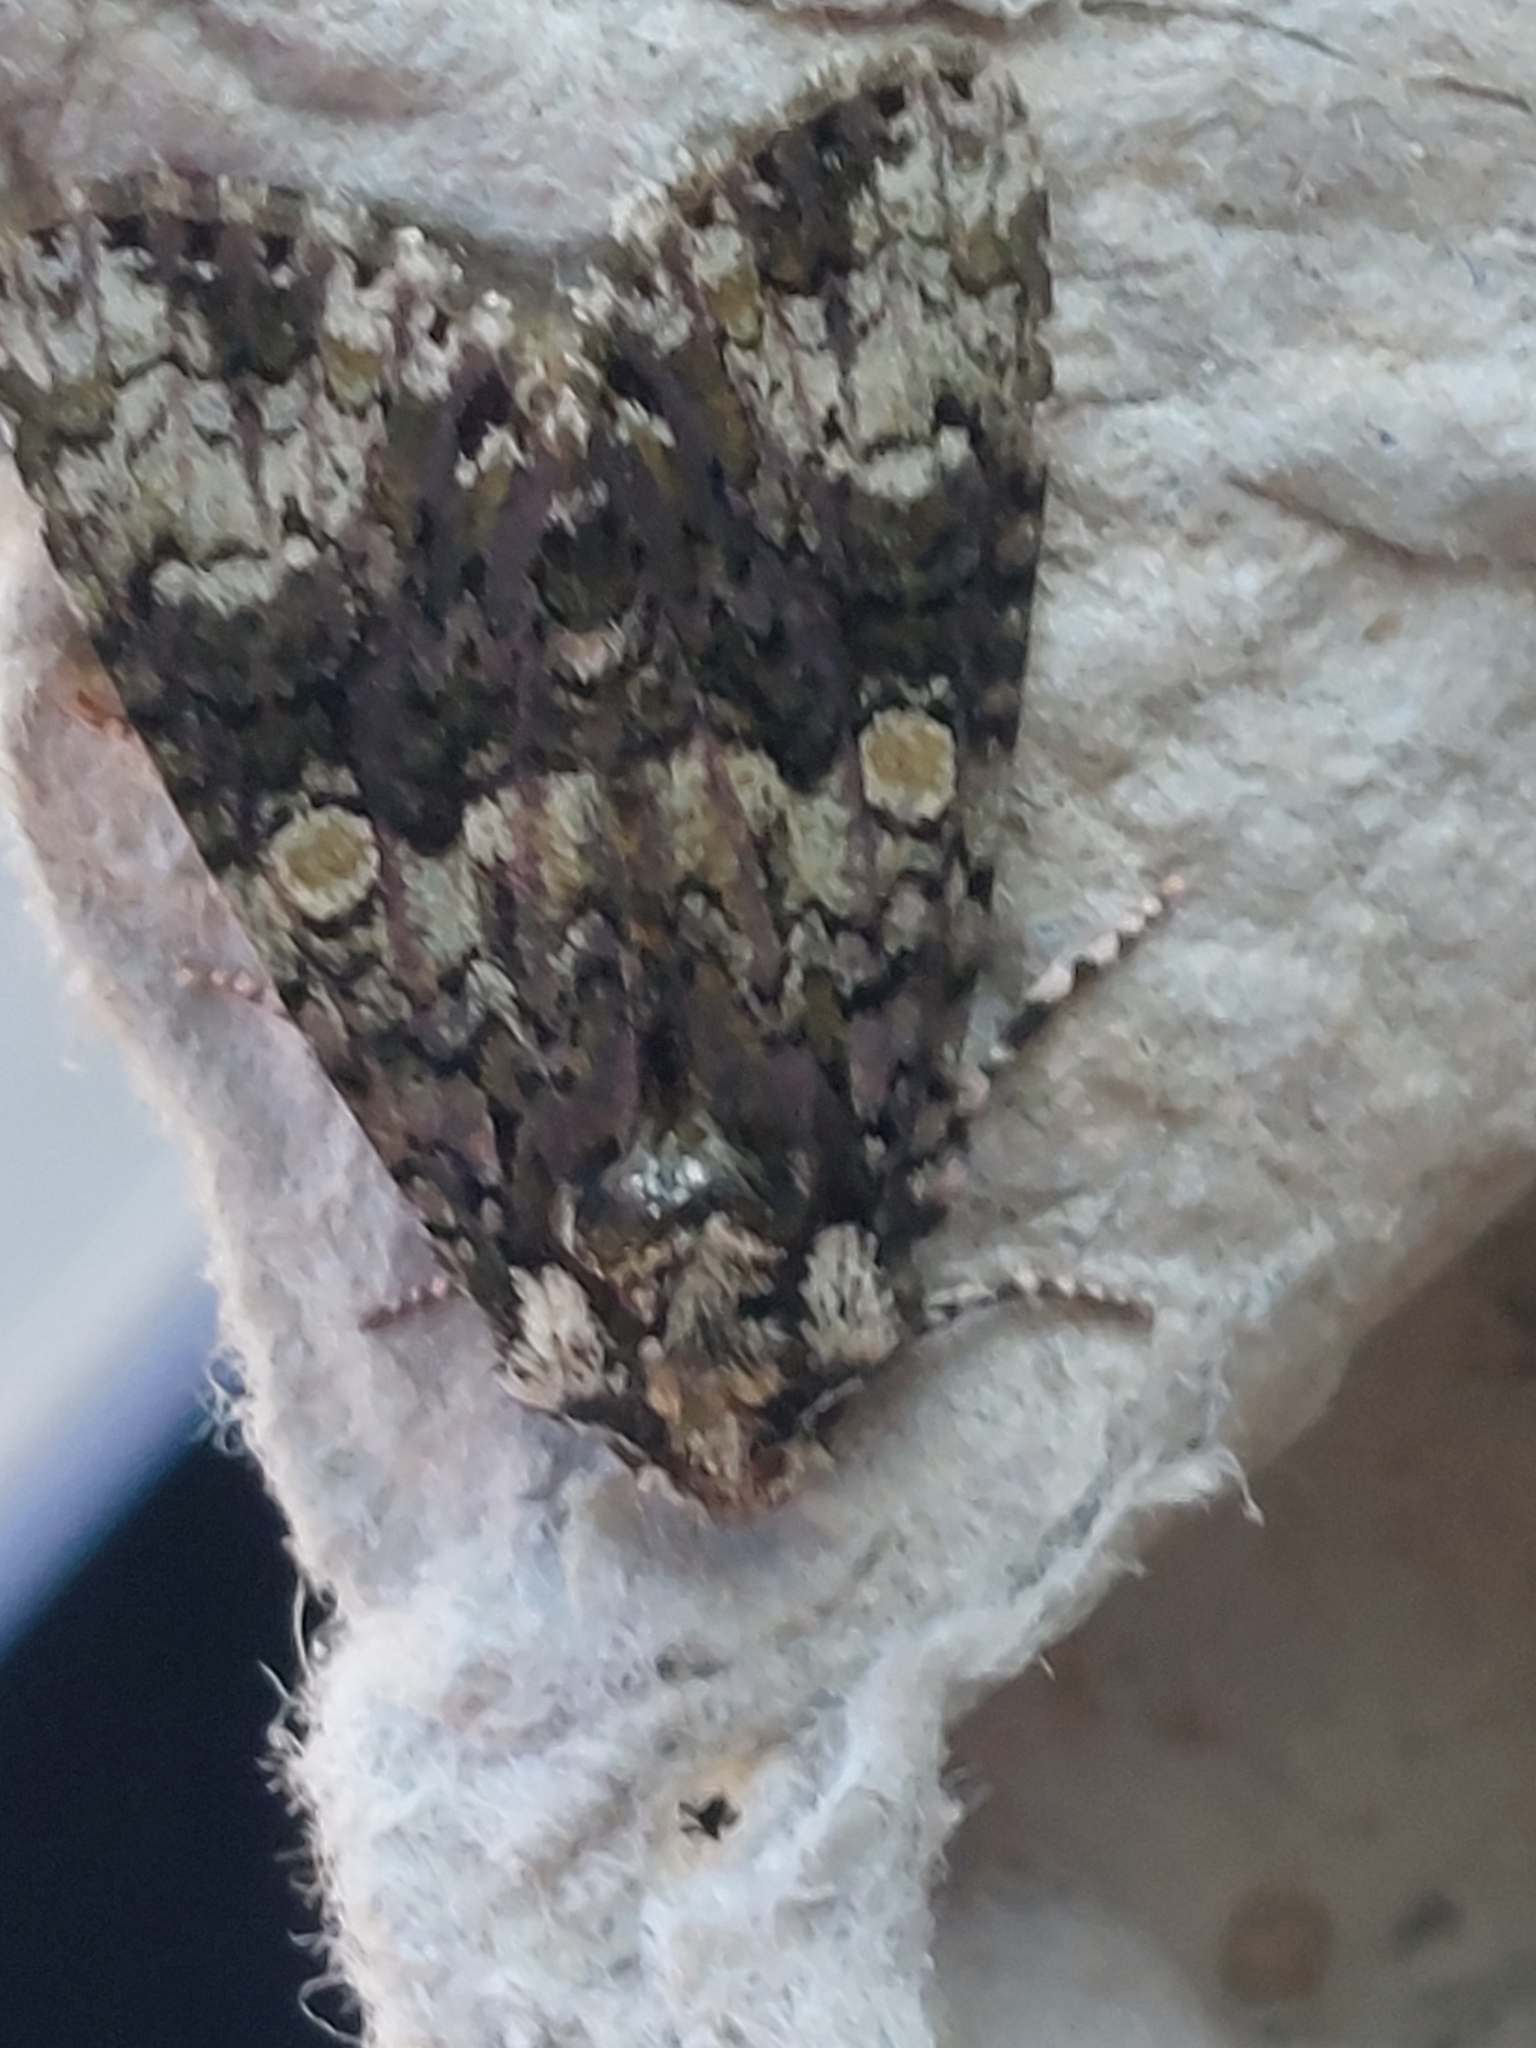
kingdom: Animalia
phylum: Arthropoda
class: Insecta
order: Lepidoptera
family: Noctuidae
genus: Craniophora
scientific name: Craniophora ligustri
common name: Coronet
